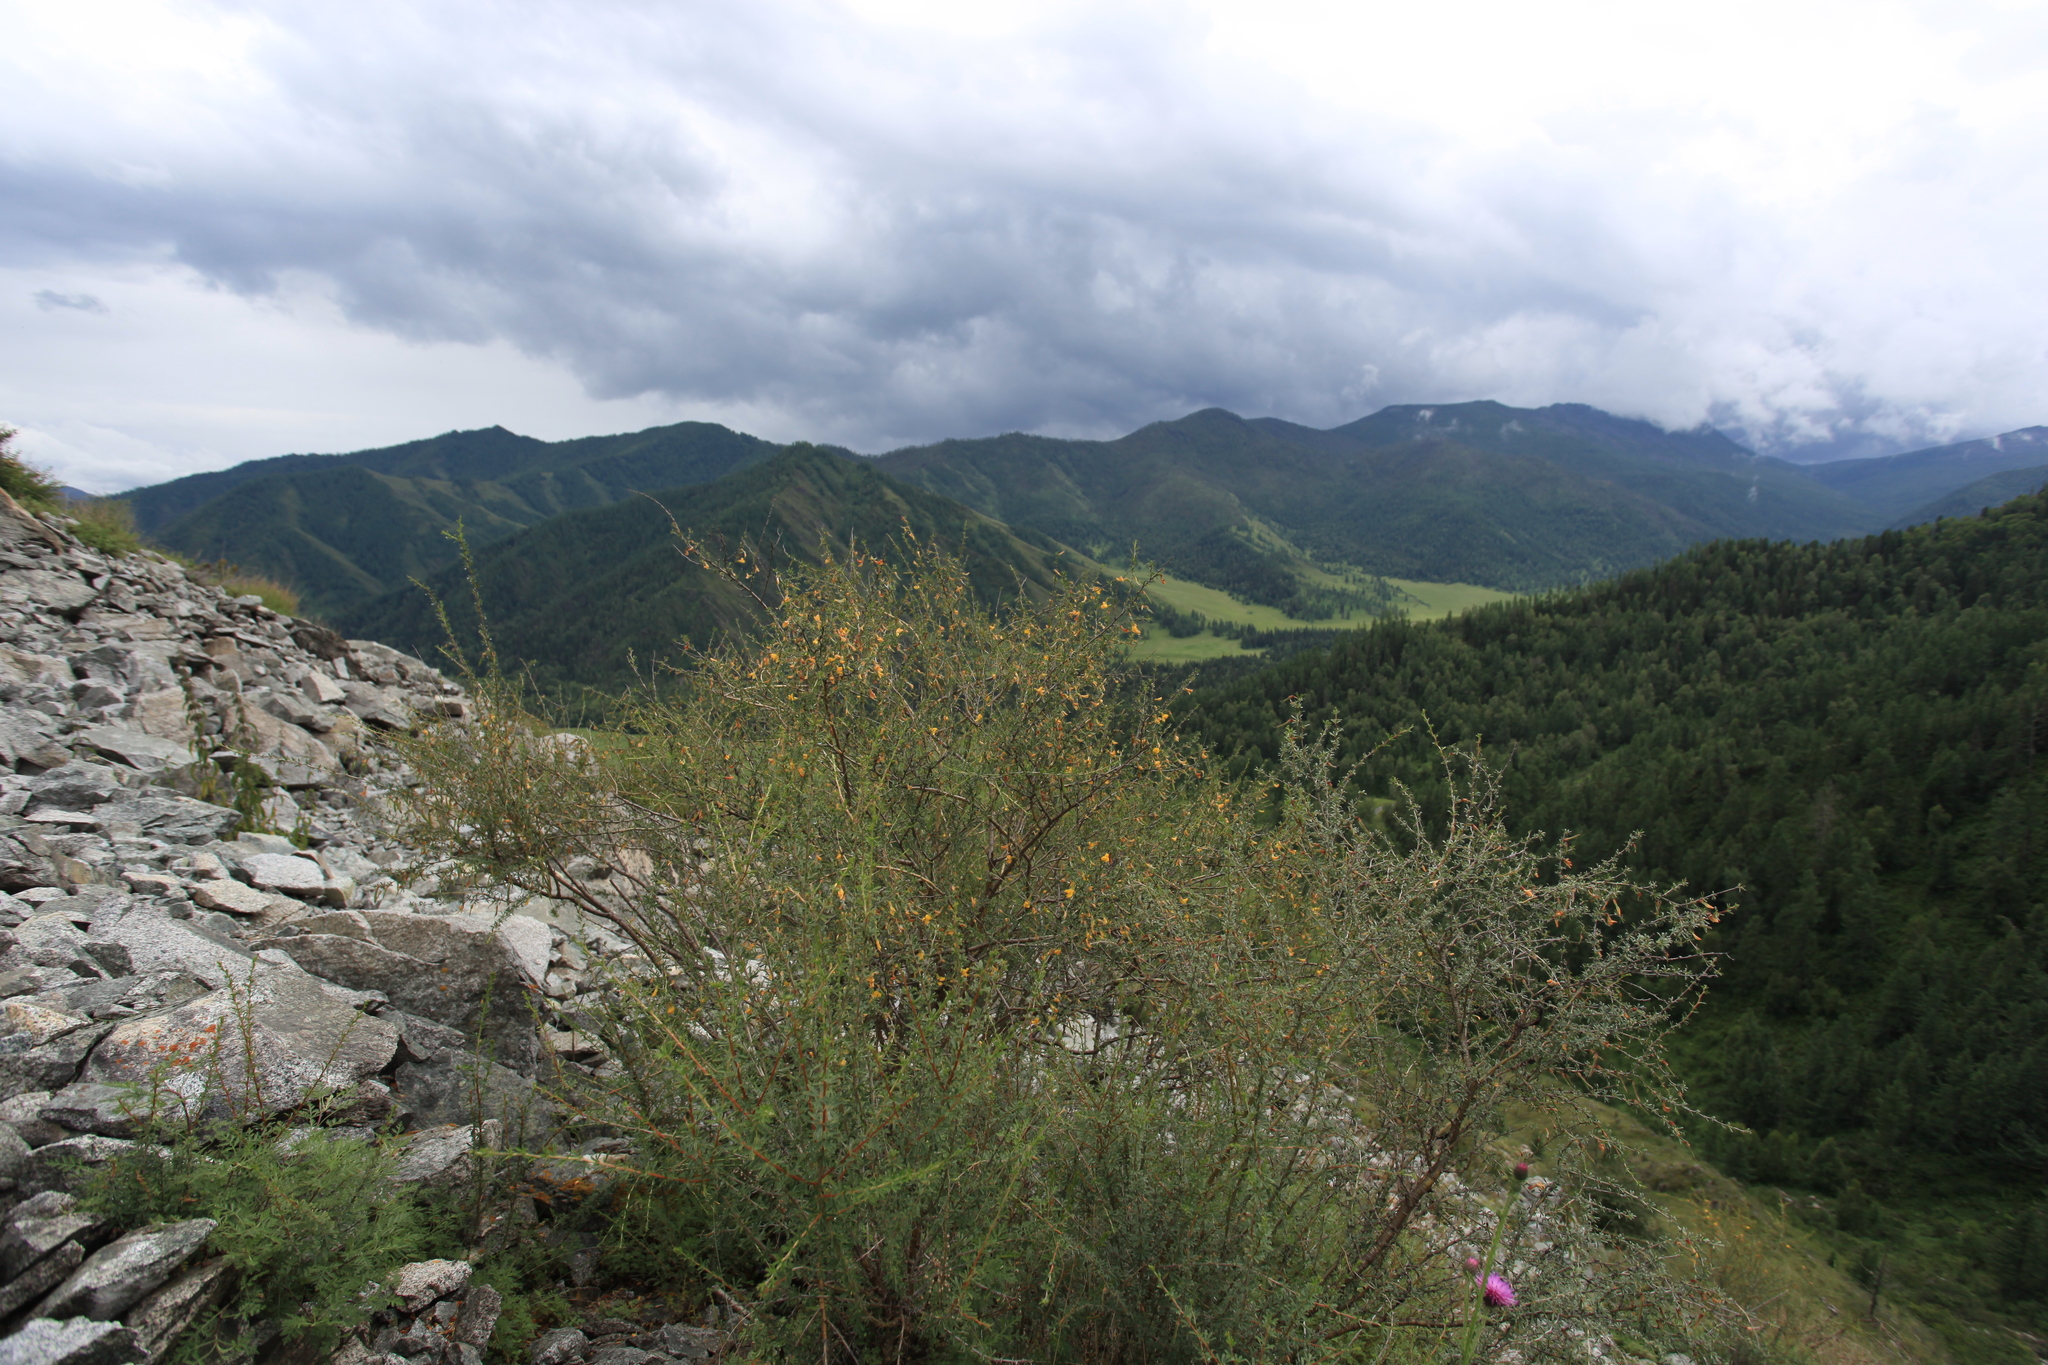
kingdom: Plantae
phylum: Tracheophyta
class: Magnoliopsida
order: Fabales
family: Fabaceae
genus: Caragana
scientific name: Caragana pygmaea
